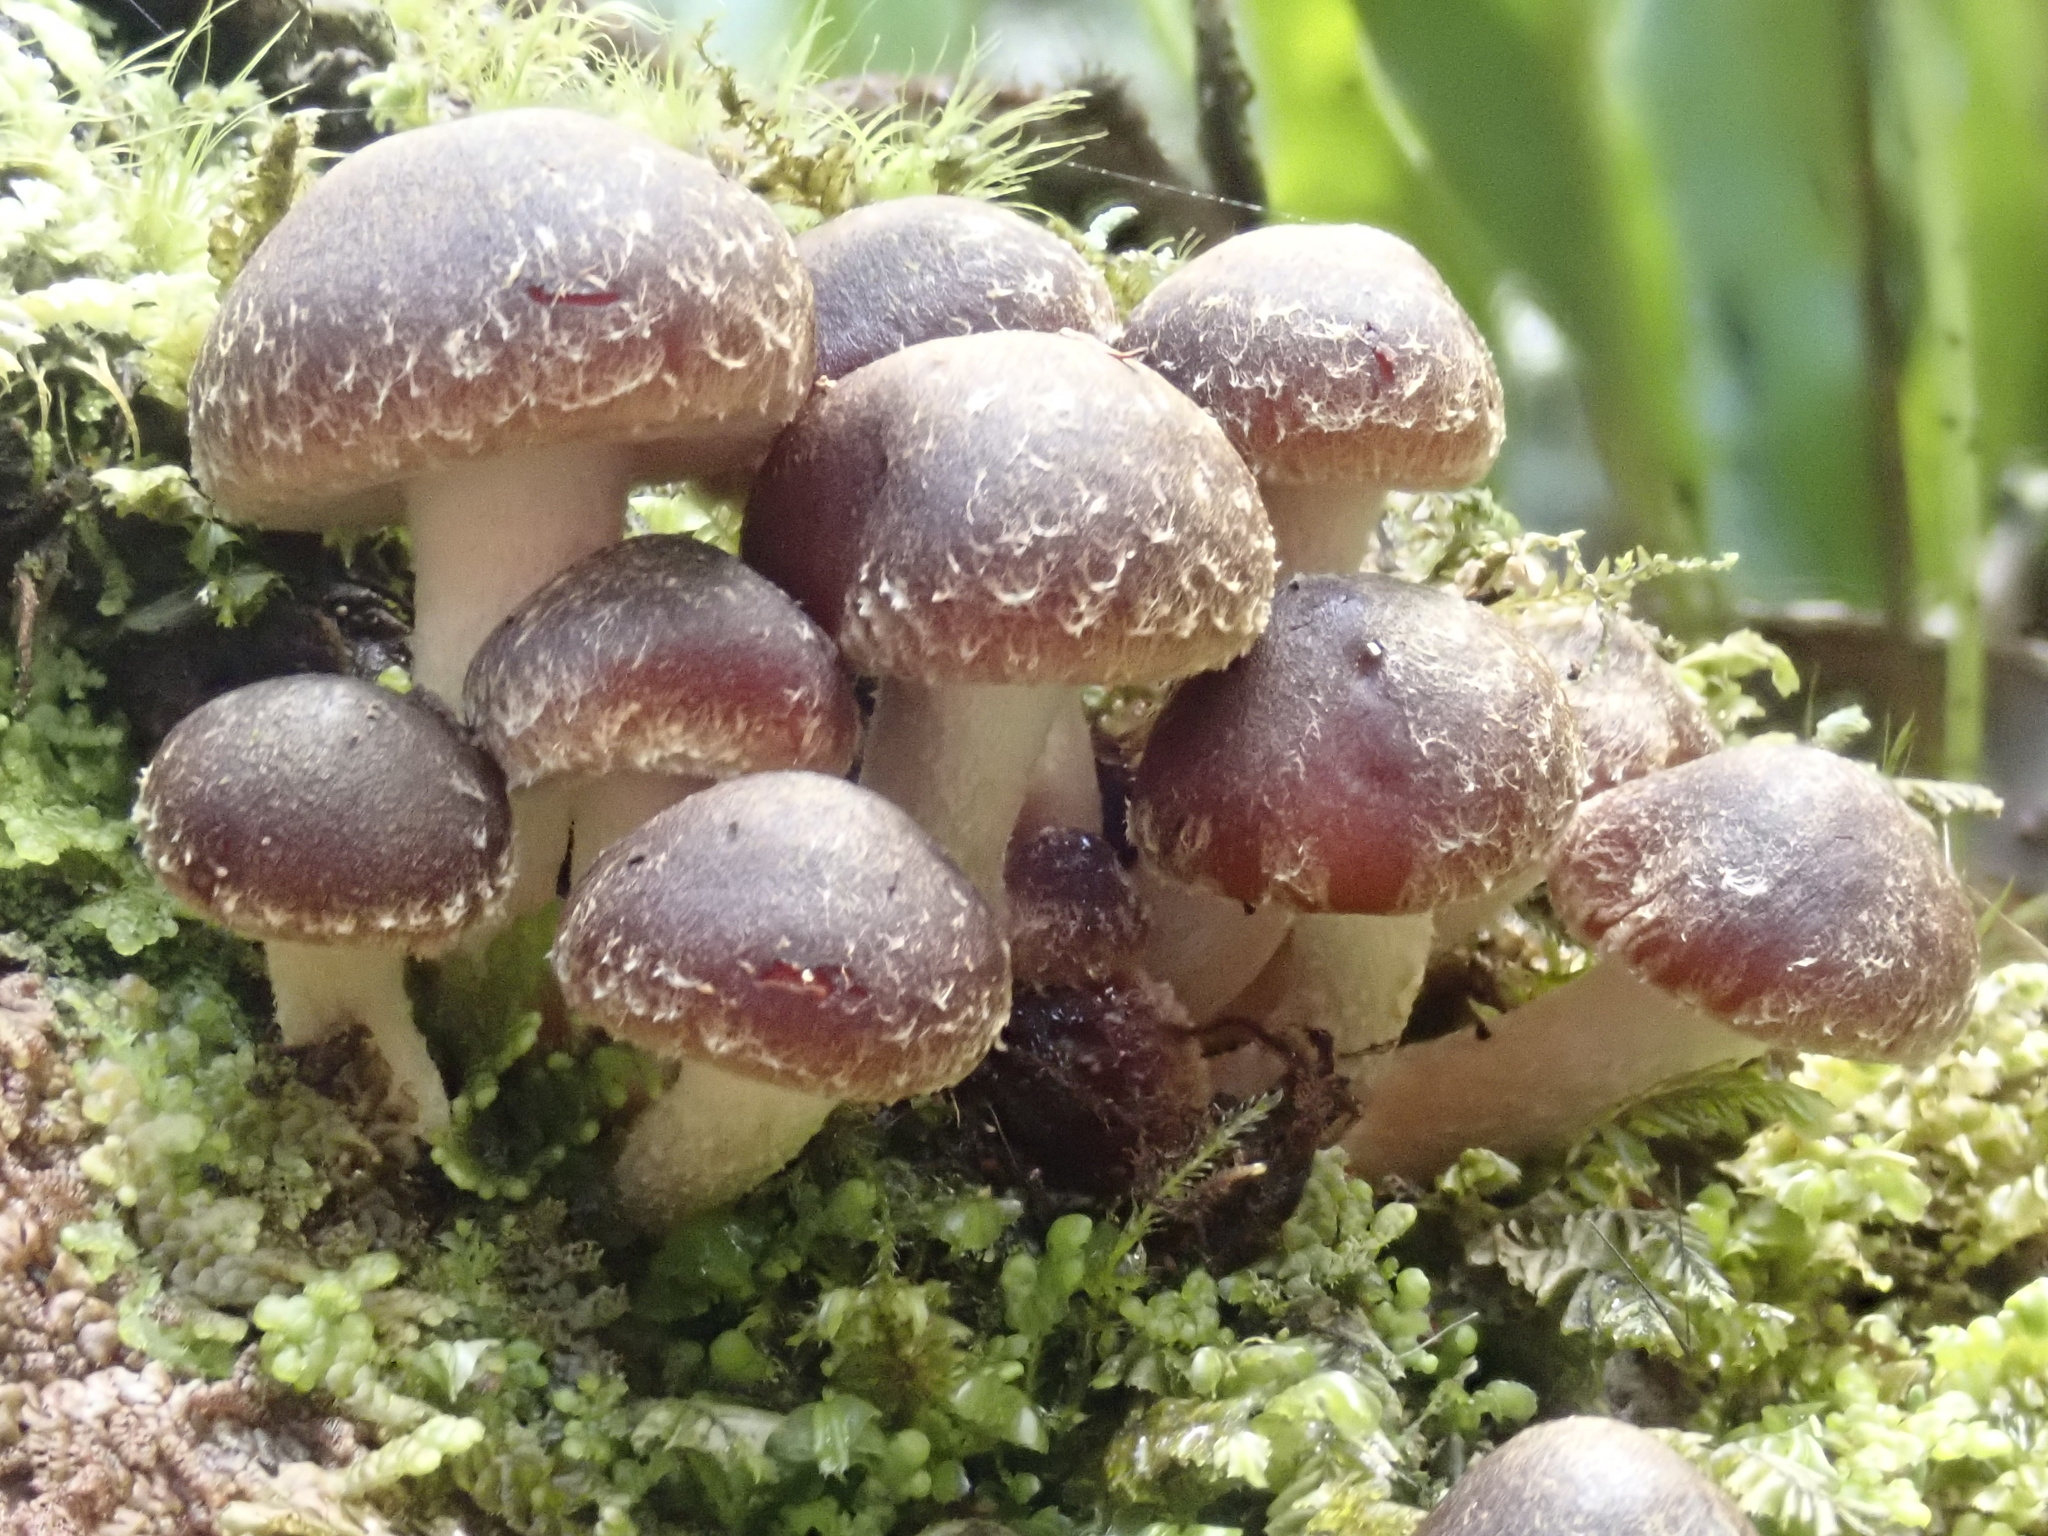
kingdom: Fungi
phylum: Basidiomycota
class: Agaricomycetes
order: Agaricales
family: Strophariaceae
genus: Hypholoma
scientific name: Hypholoma brunneum
